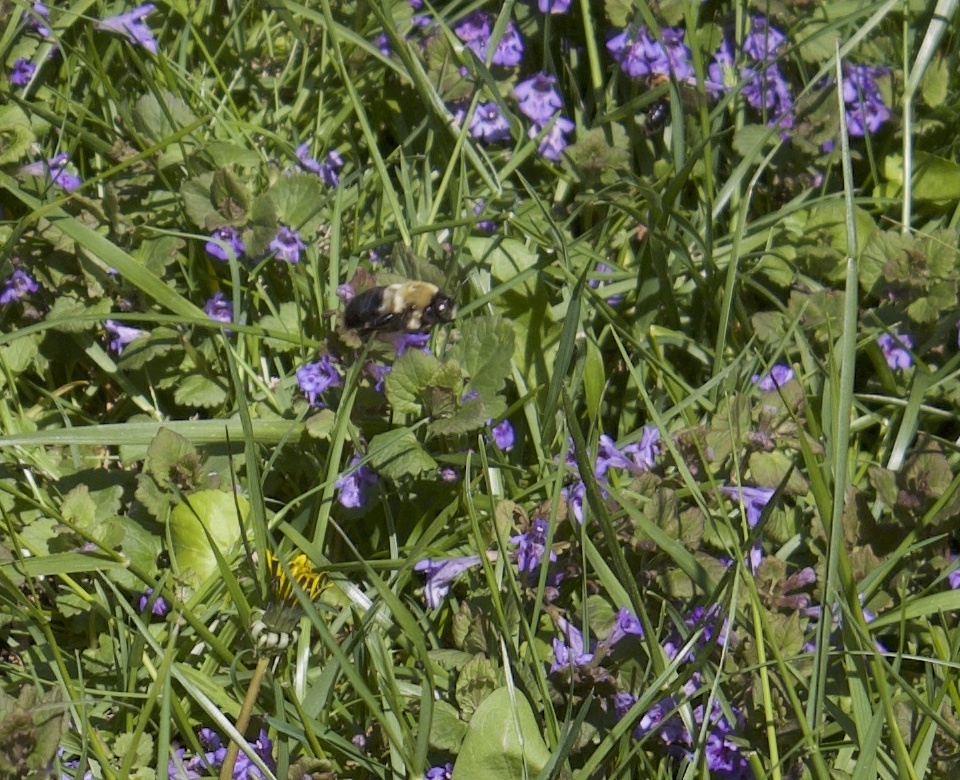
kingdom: Animalia
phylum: Arthropoda
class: Insecta
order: Hymenoptera
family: Apidae
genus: Xylocopa
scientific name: Xylocopa virginica
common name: Carpenter bee
